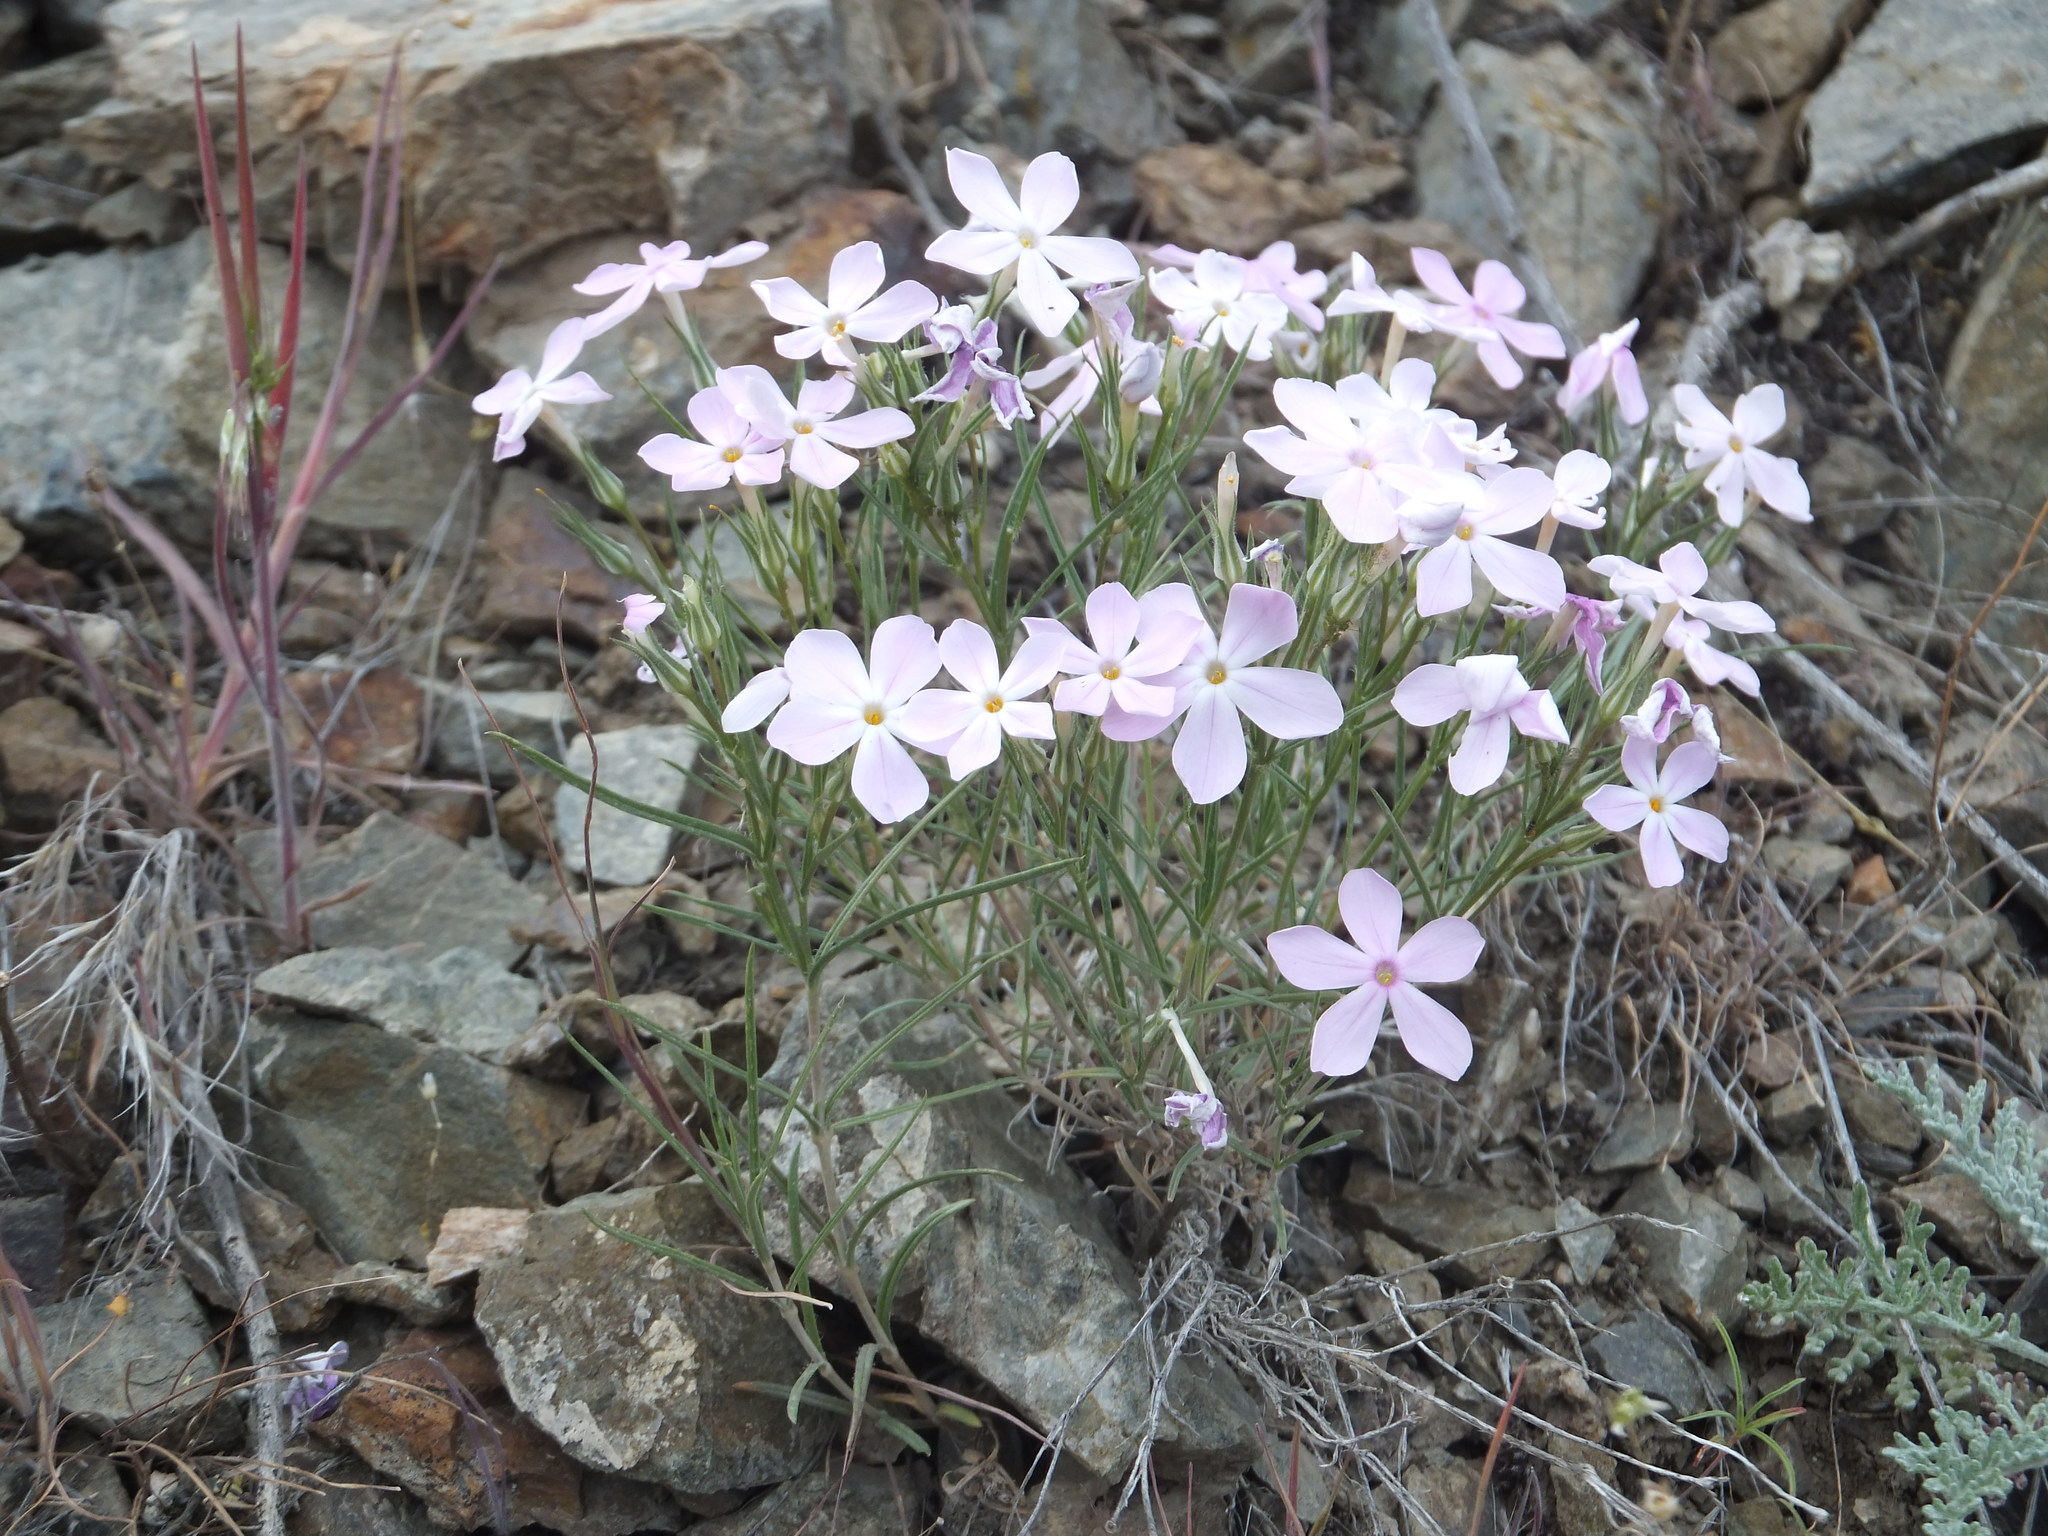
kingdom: Plantae
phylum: Tracheophyta
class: Magnoliopsida
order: Ericales
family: Polemoniaceae
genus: Phlox
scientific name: Phlox longifolia
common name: Longleaf phlox
